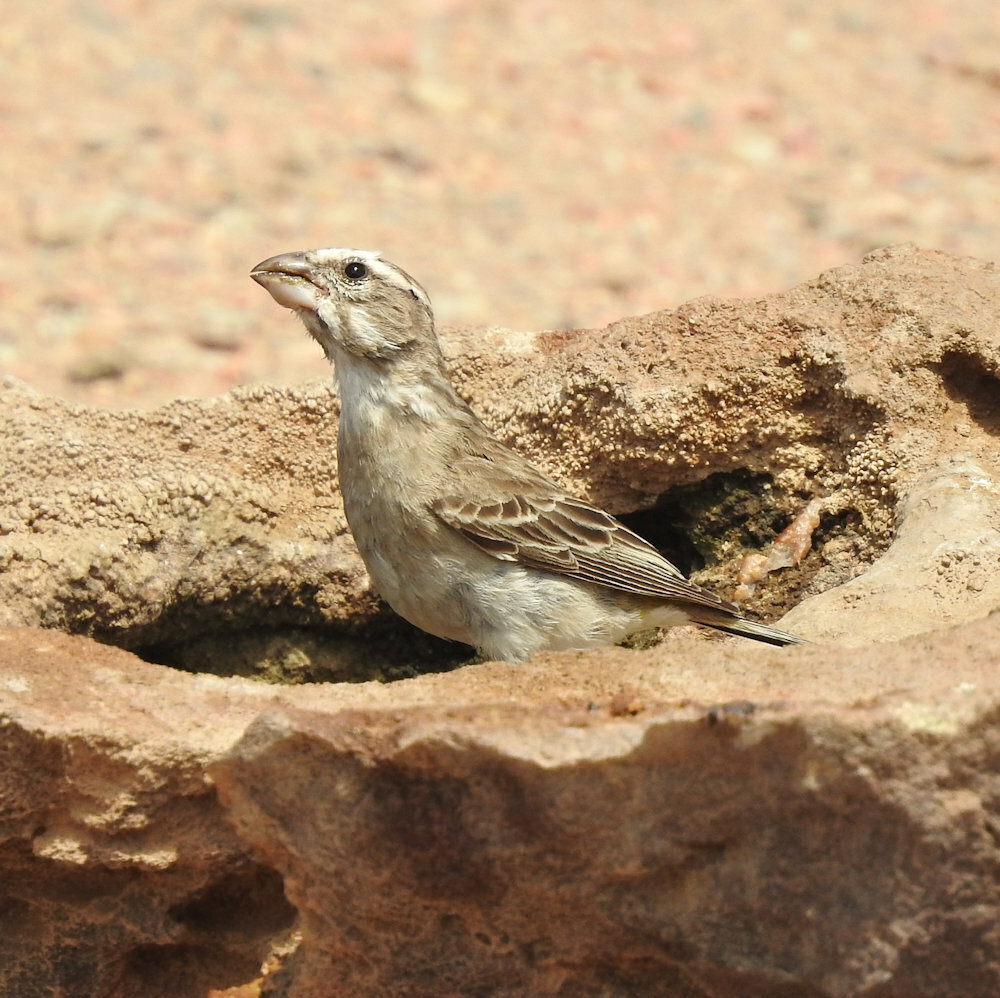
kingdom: Animalia
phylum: Chordata
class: Aves
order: Passeriformes
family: Fringillidae
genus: Crithagra
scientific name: Crithagra albogularis
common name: White-throated canary
